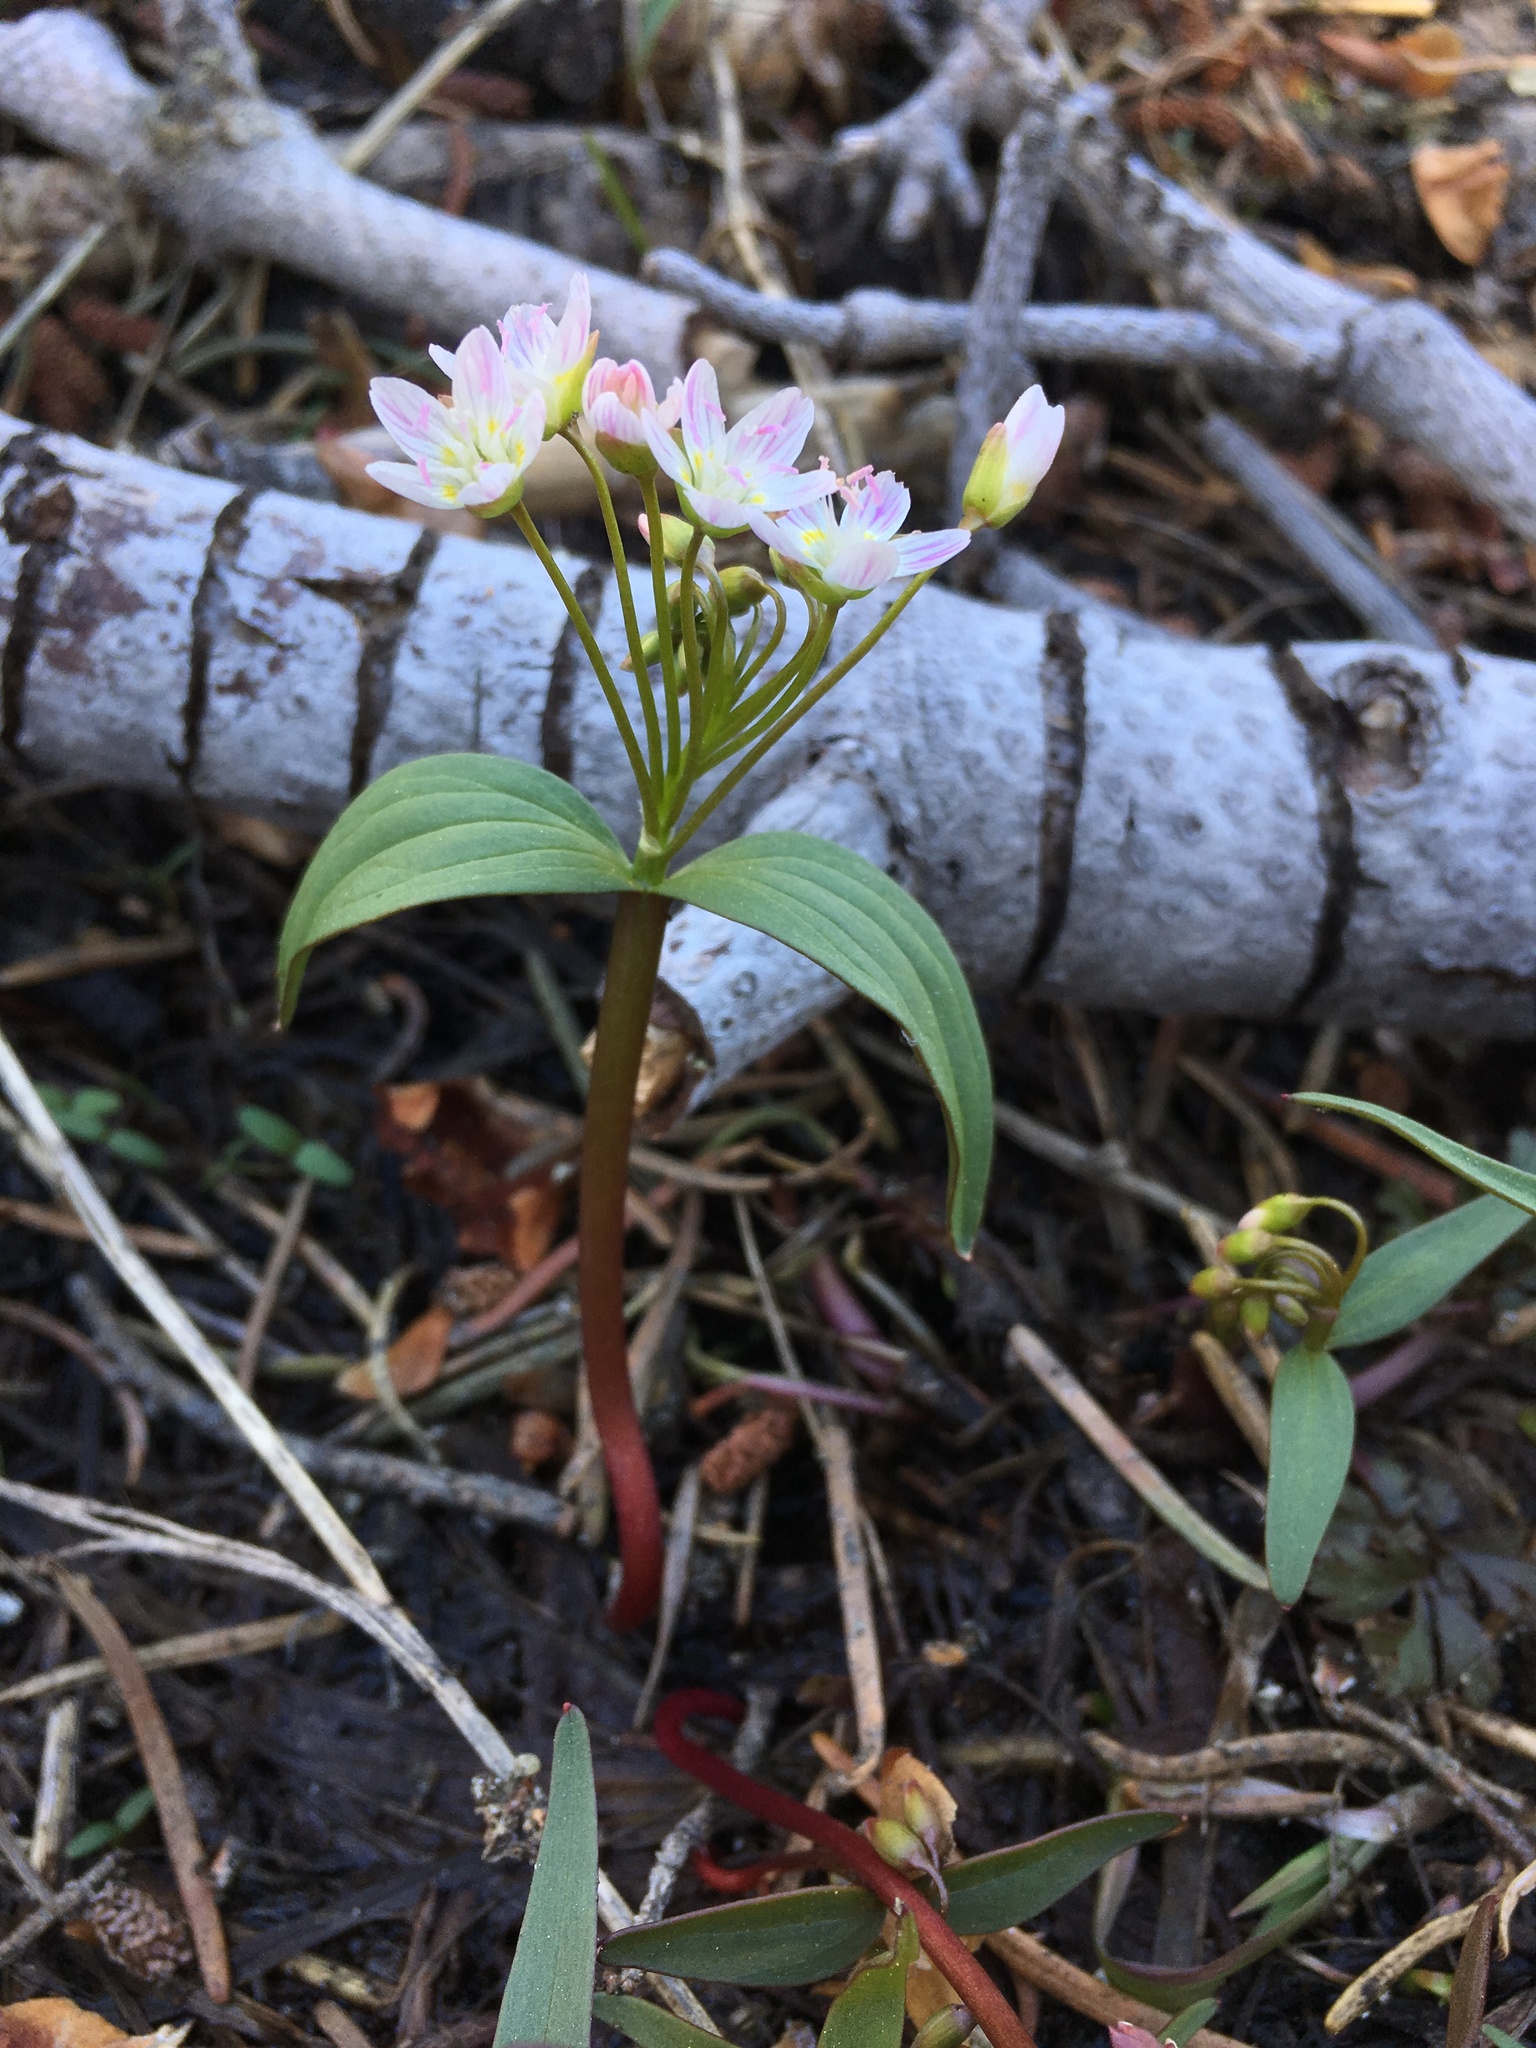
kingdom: Plantae
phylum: Tracheophyta
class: Magnoliopsida
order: Caryophyllales
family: Montiaceae
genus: Claytonia
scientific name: Claytonia lanceolata
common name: Western spring-beauty
